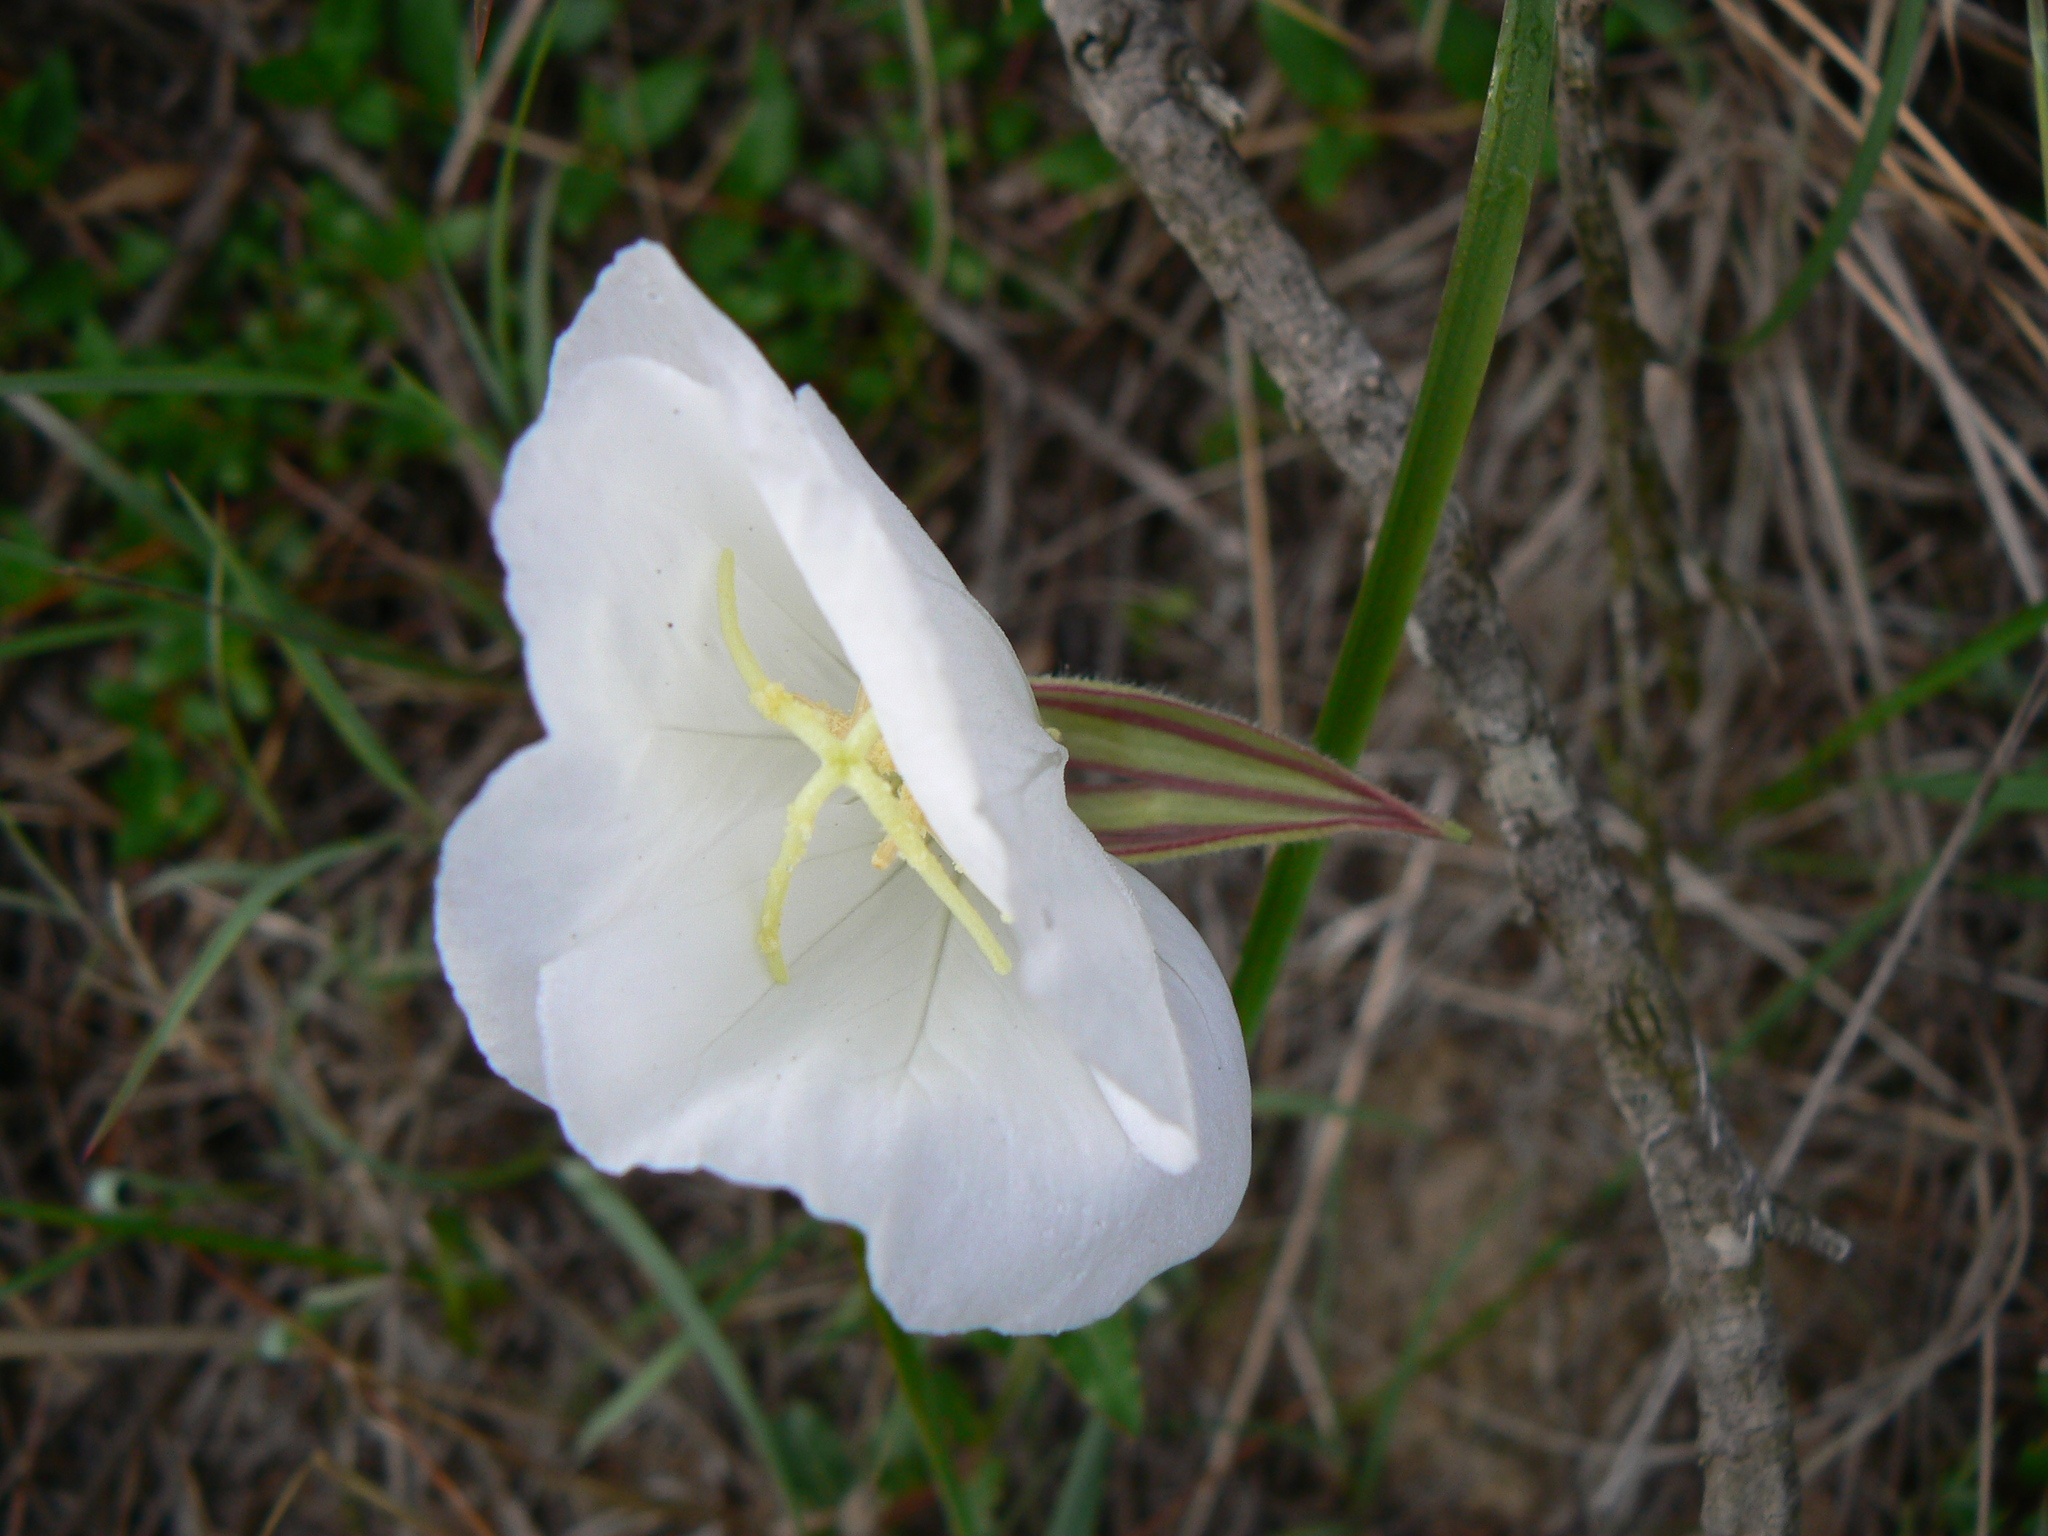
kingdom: Plantae
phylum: Tracheophyta
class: Magnoliopsida
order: Myrtales
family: Onagraceae
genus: Oenothera
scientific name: Oenothera tetraptera
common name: Four-wing evening-primrose
